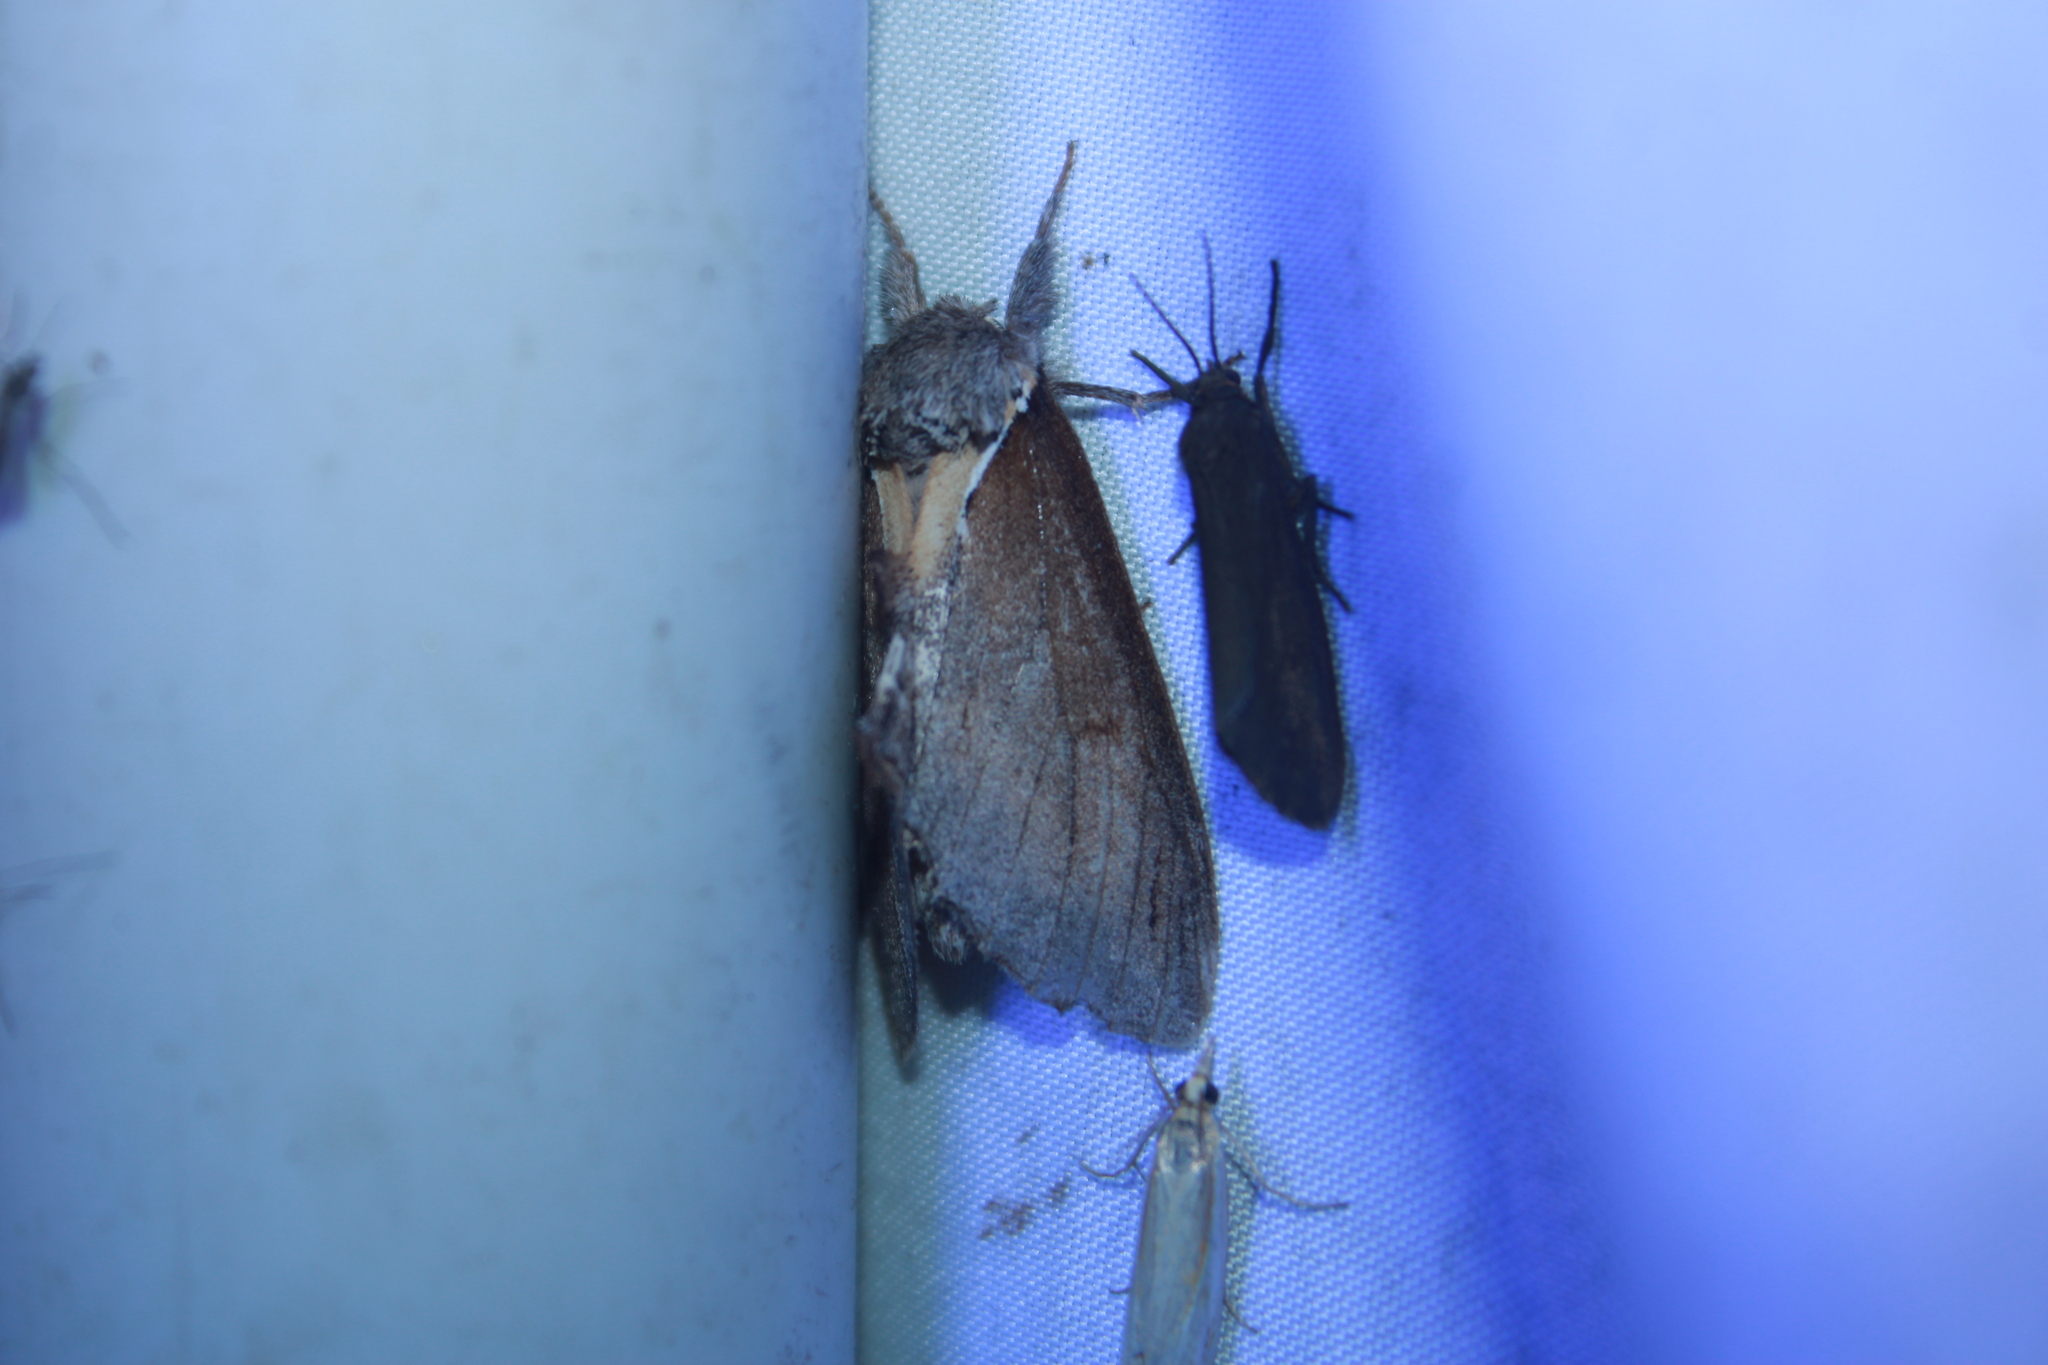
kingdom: Animalia
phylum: Arthropoda
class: Insecta
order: Lepidoptera
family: Notodontidae
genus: Pheosidea
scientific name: Pheosidea elegans
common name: Elegant prominent
